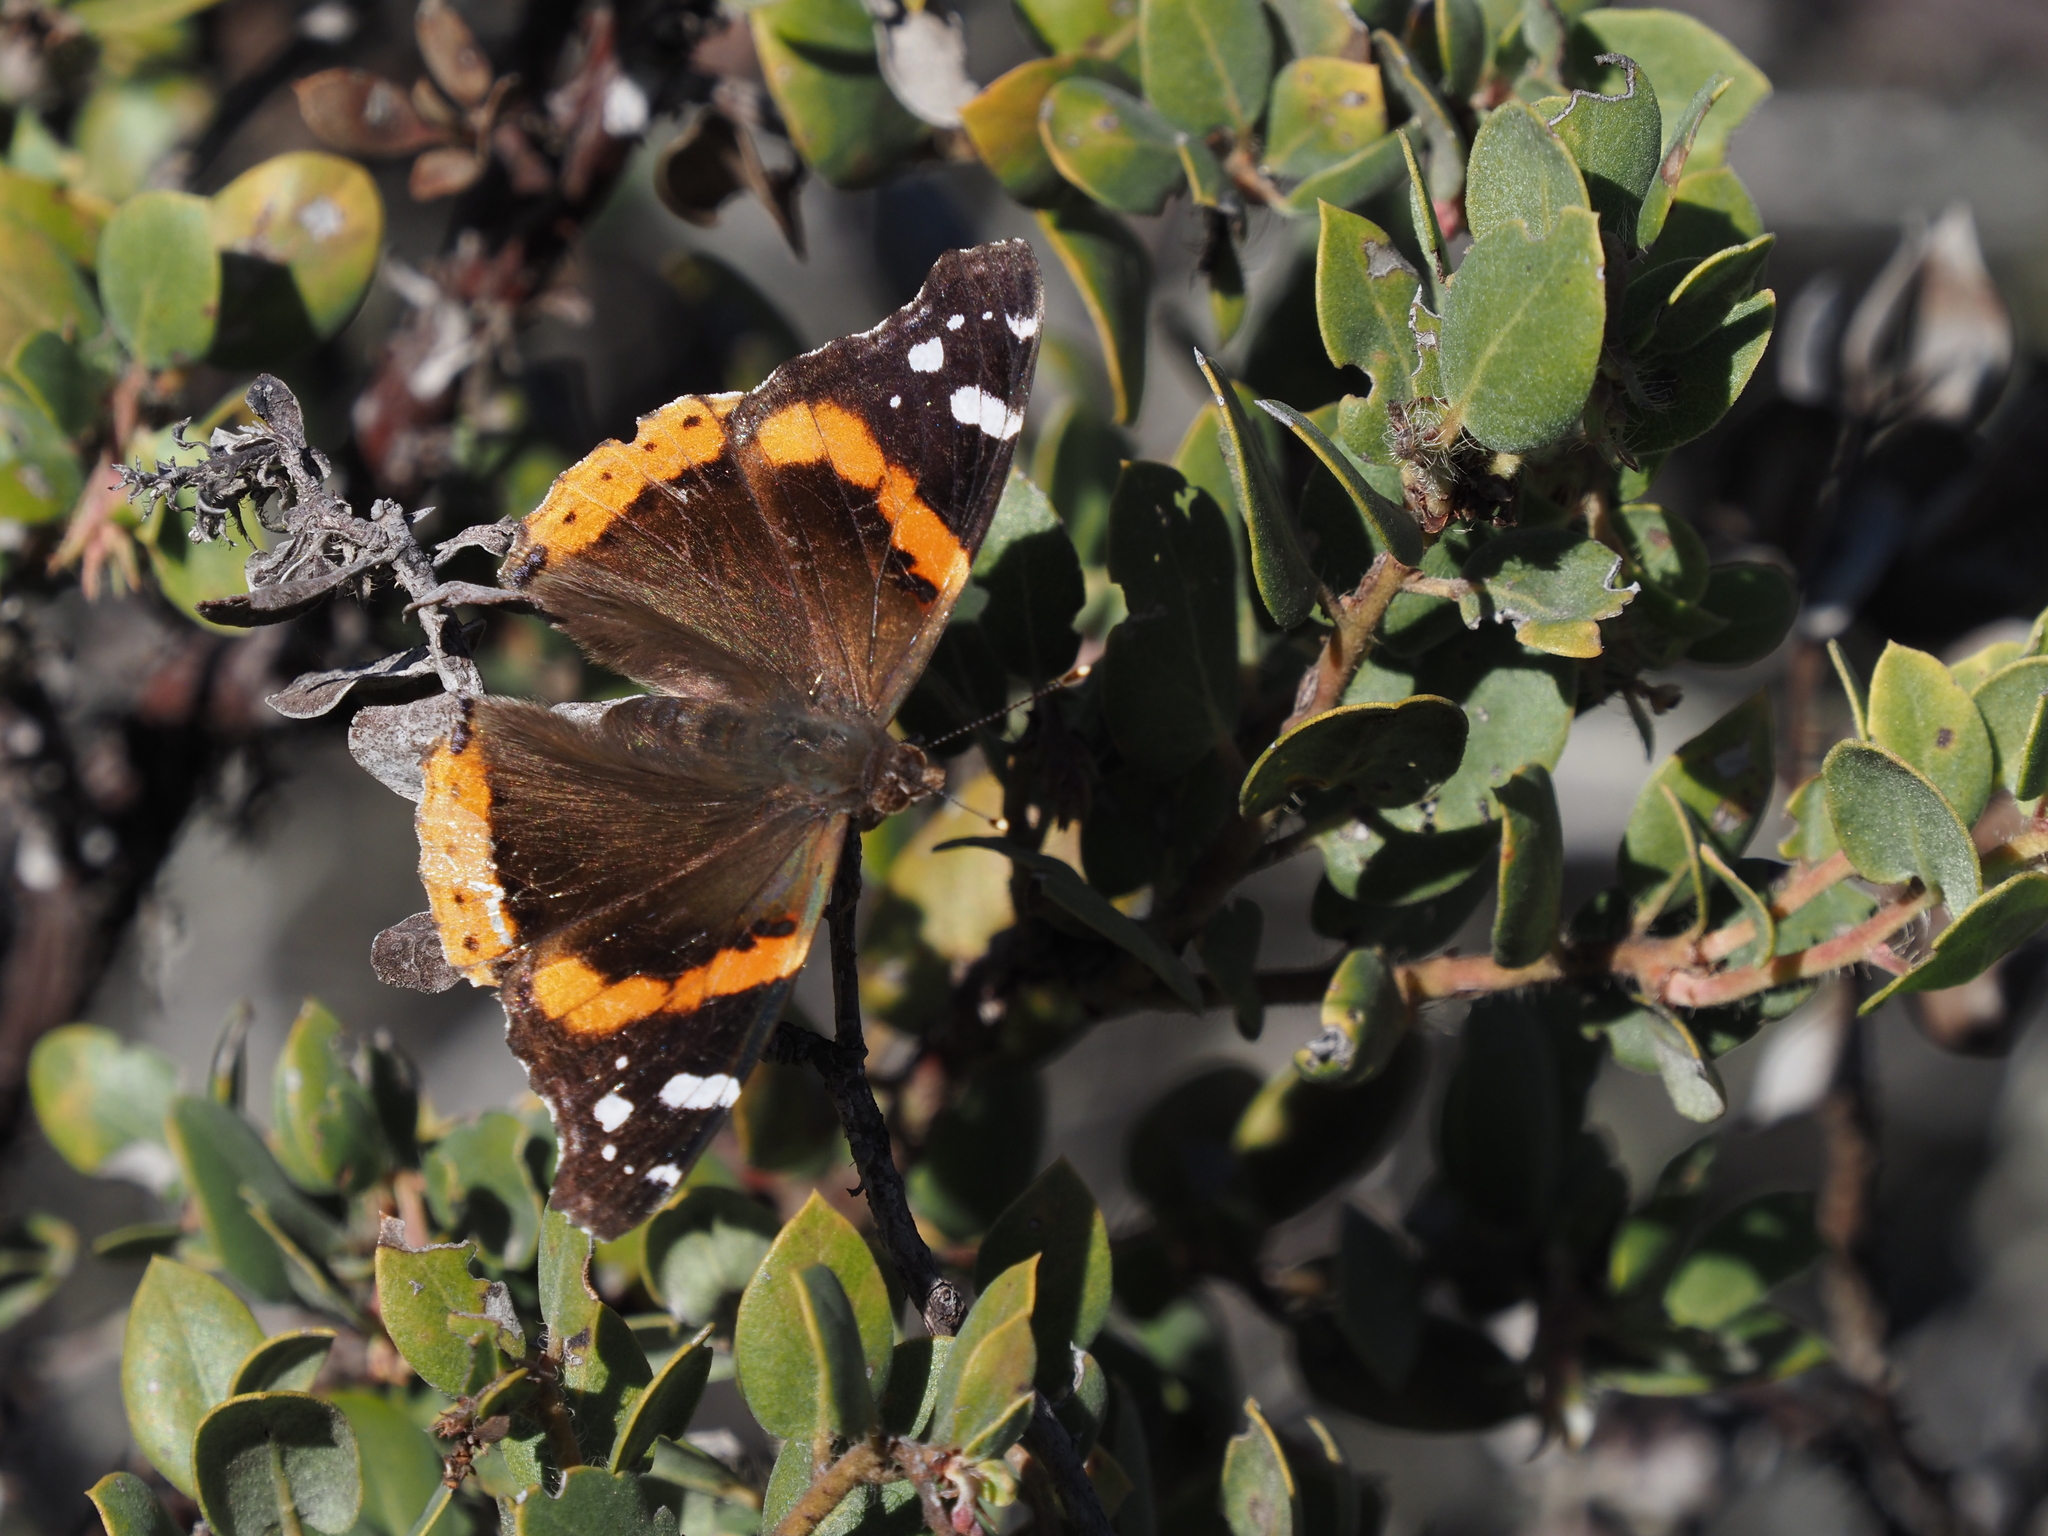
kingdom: Animalia
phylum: Arthropoda
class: Insecta
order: Lepidoptera
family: Nymphalidae
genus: Vanessa
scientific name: Vanessa atalanta
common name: Red admiral
